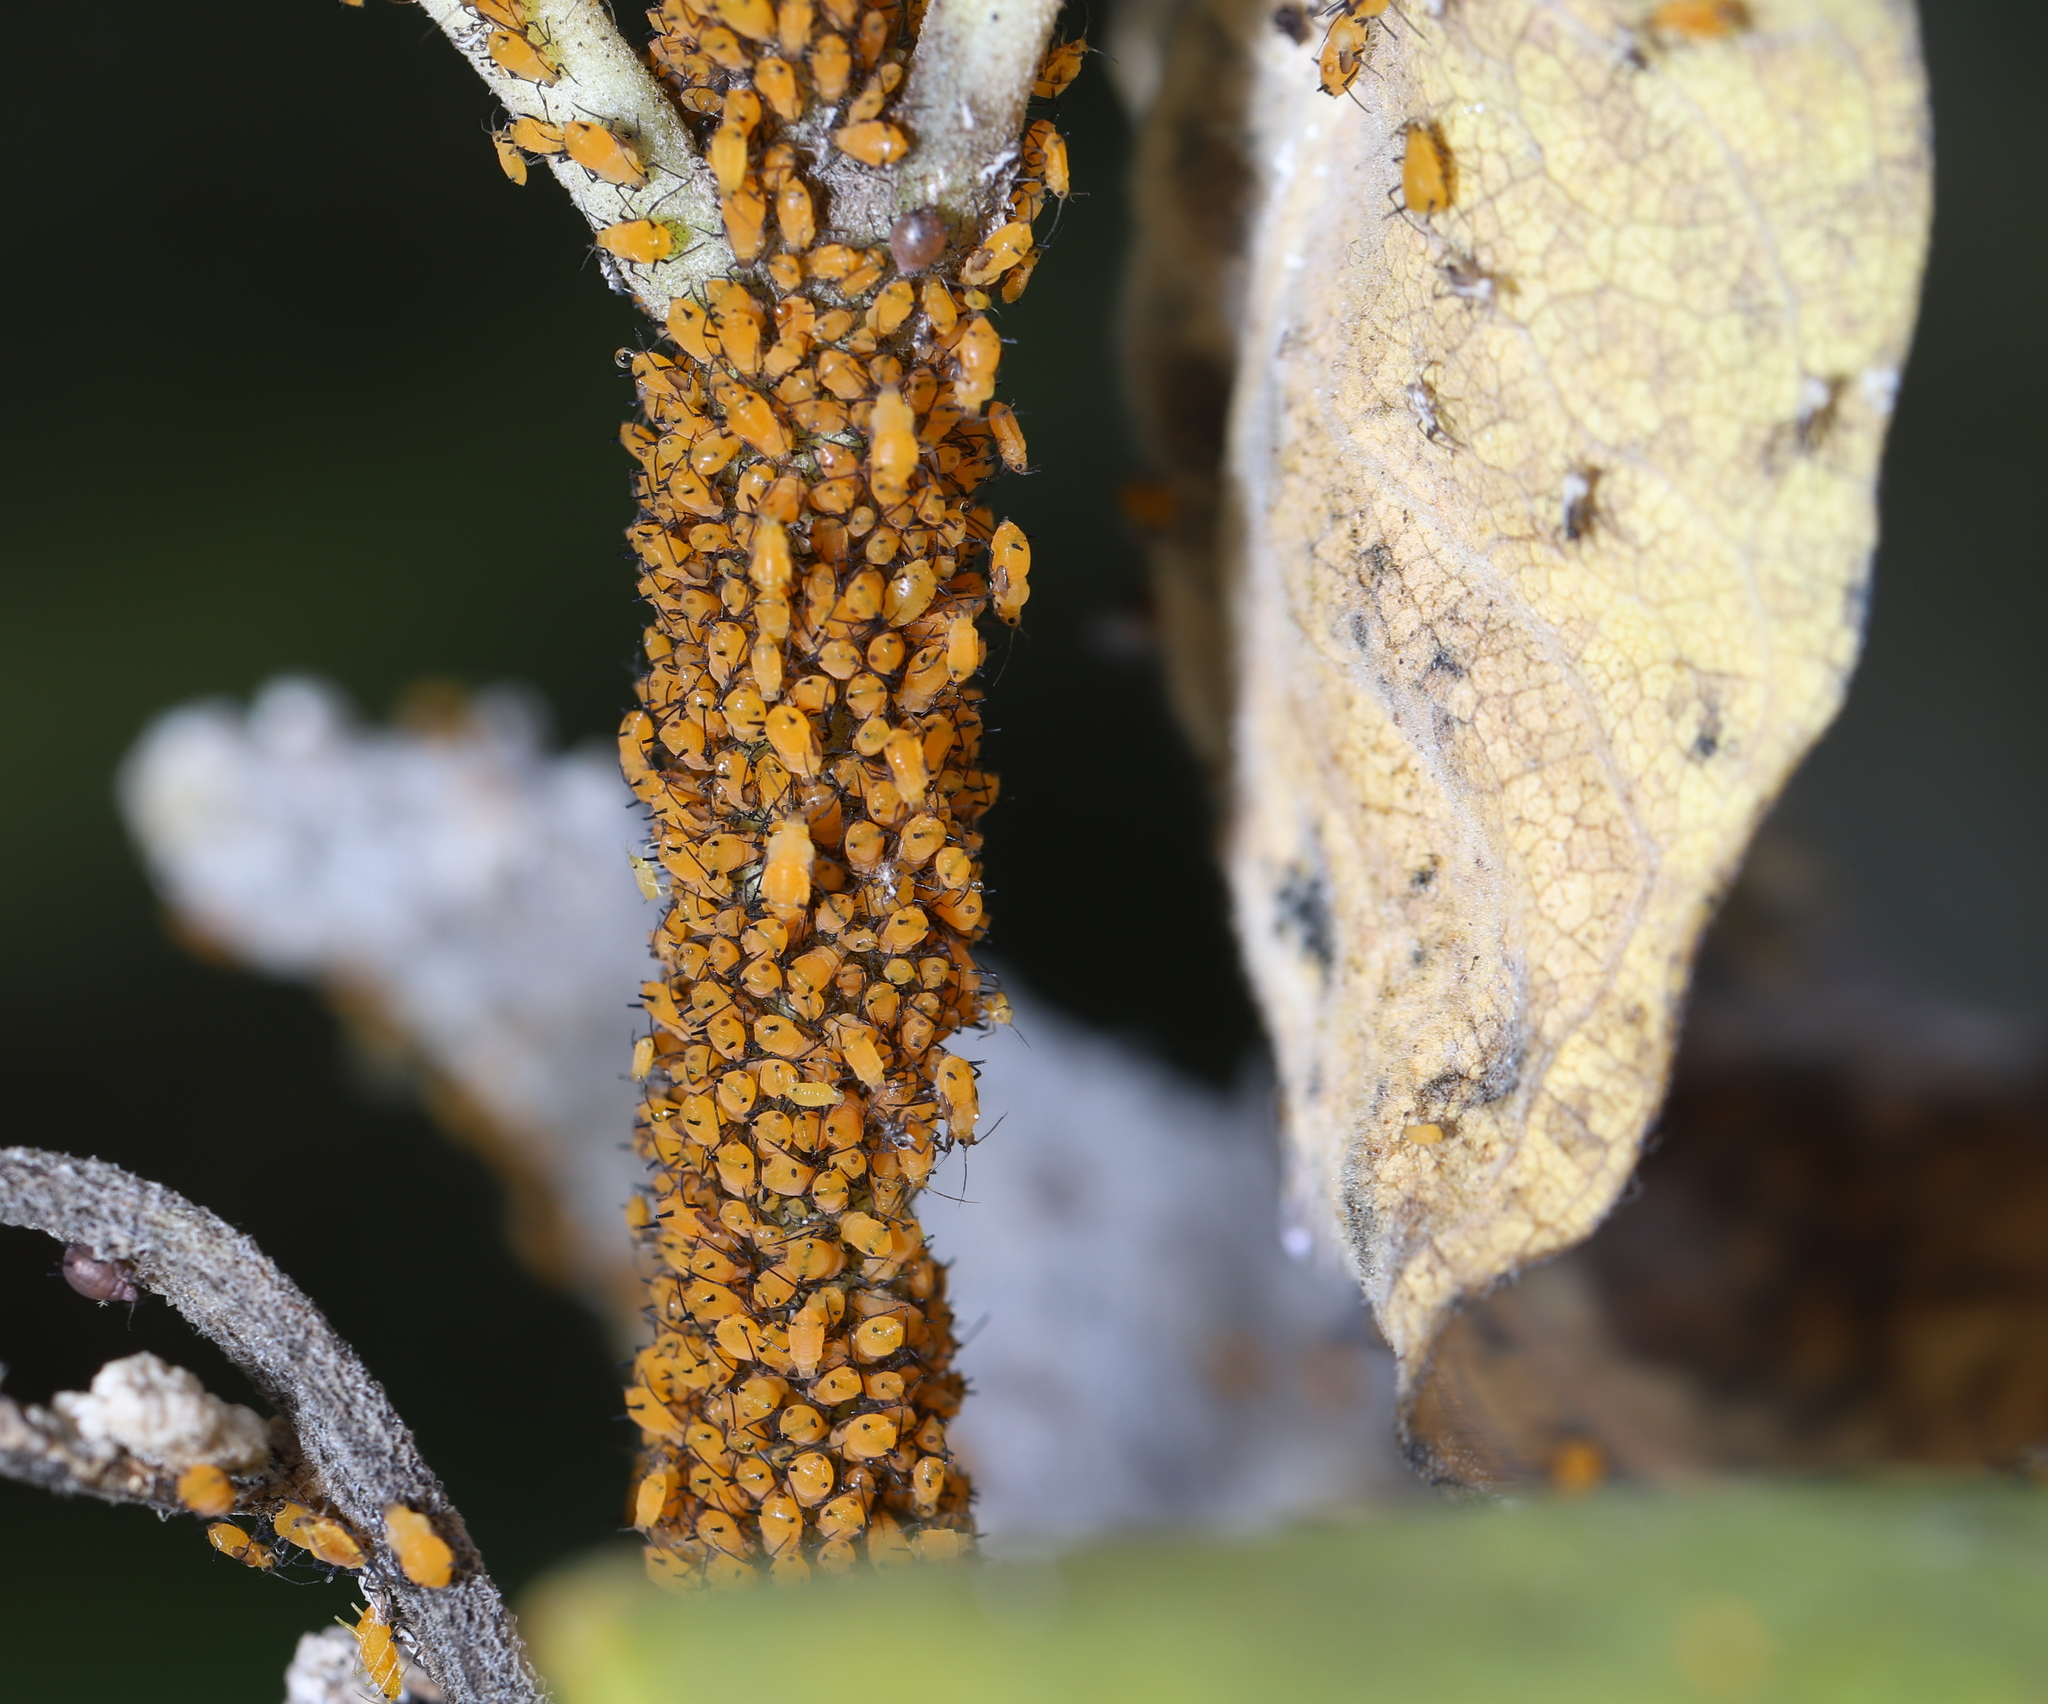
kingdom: Animalia
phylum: Arthropoda
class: Insecta
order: Hemiptera
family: Aphididae
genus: Aphis
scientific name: Aphis nerii
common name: Oleander aphid
